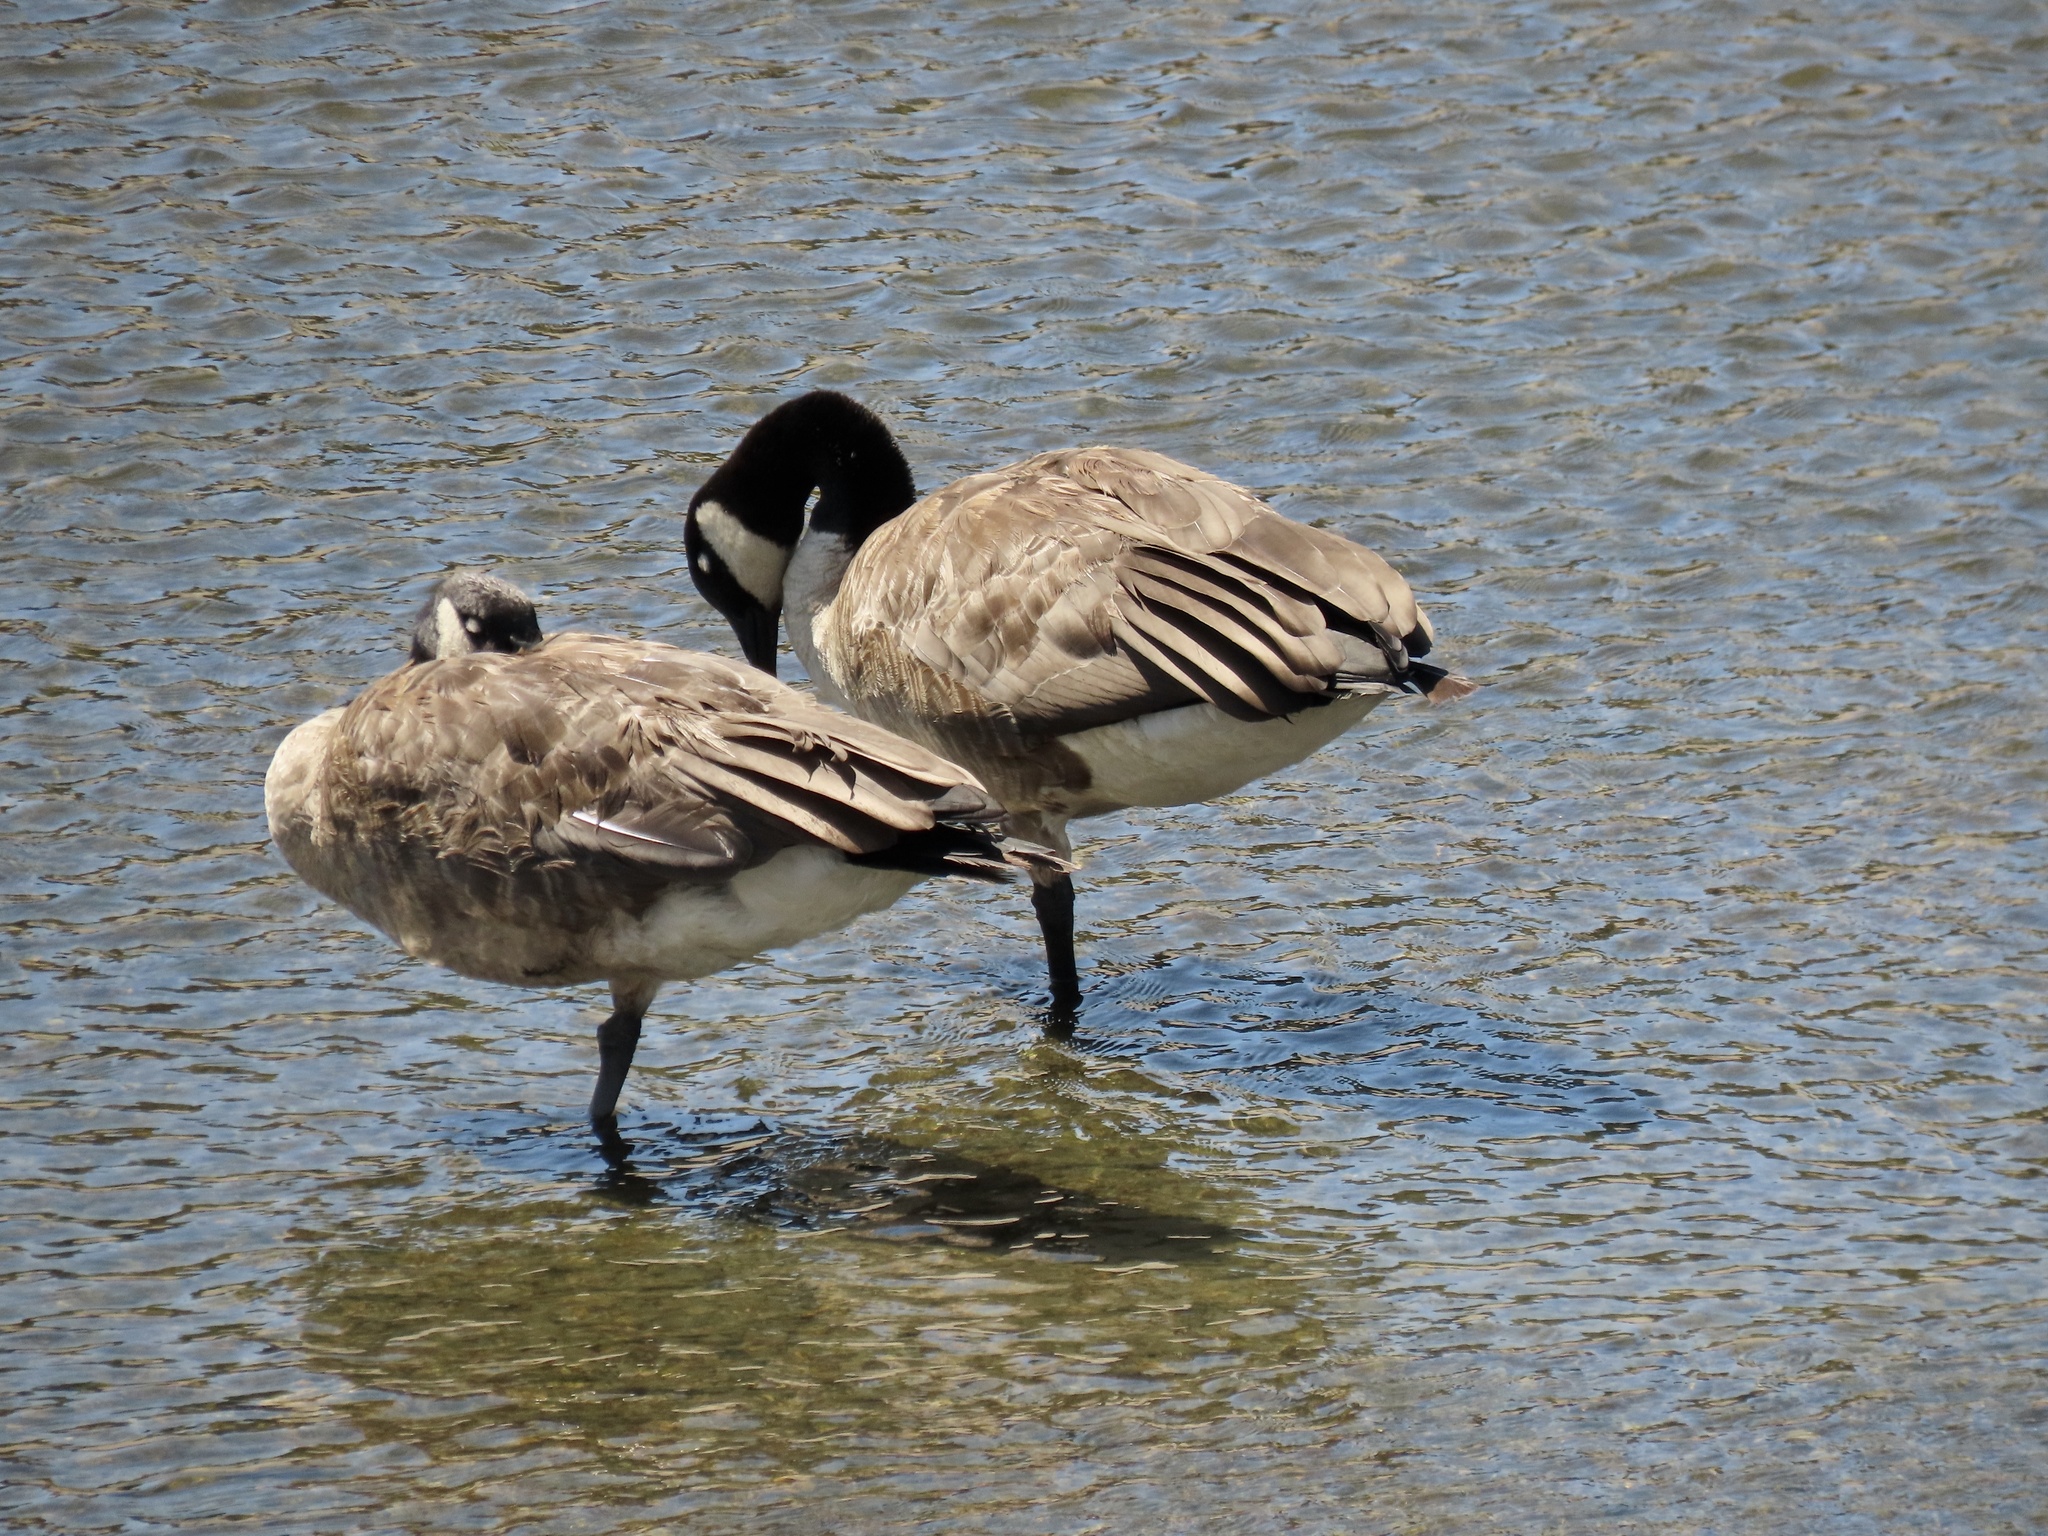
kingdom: Animalia
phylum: Chordata
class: Aves
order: Anseriformes
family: Anatidae
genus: Branta
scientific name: Branta canadensis
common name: Canada goose
